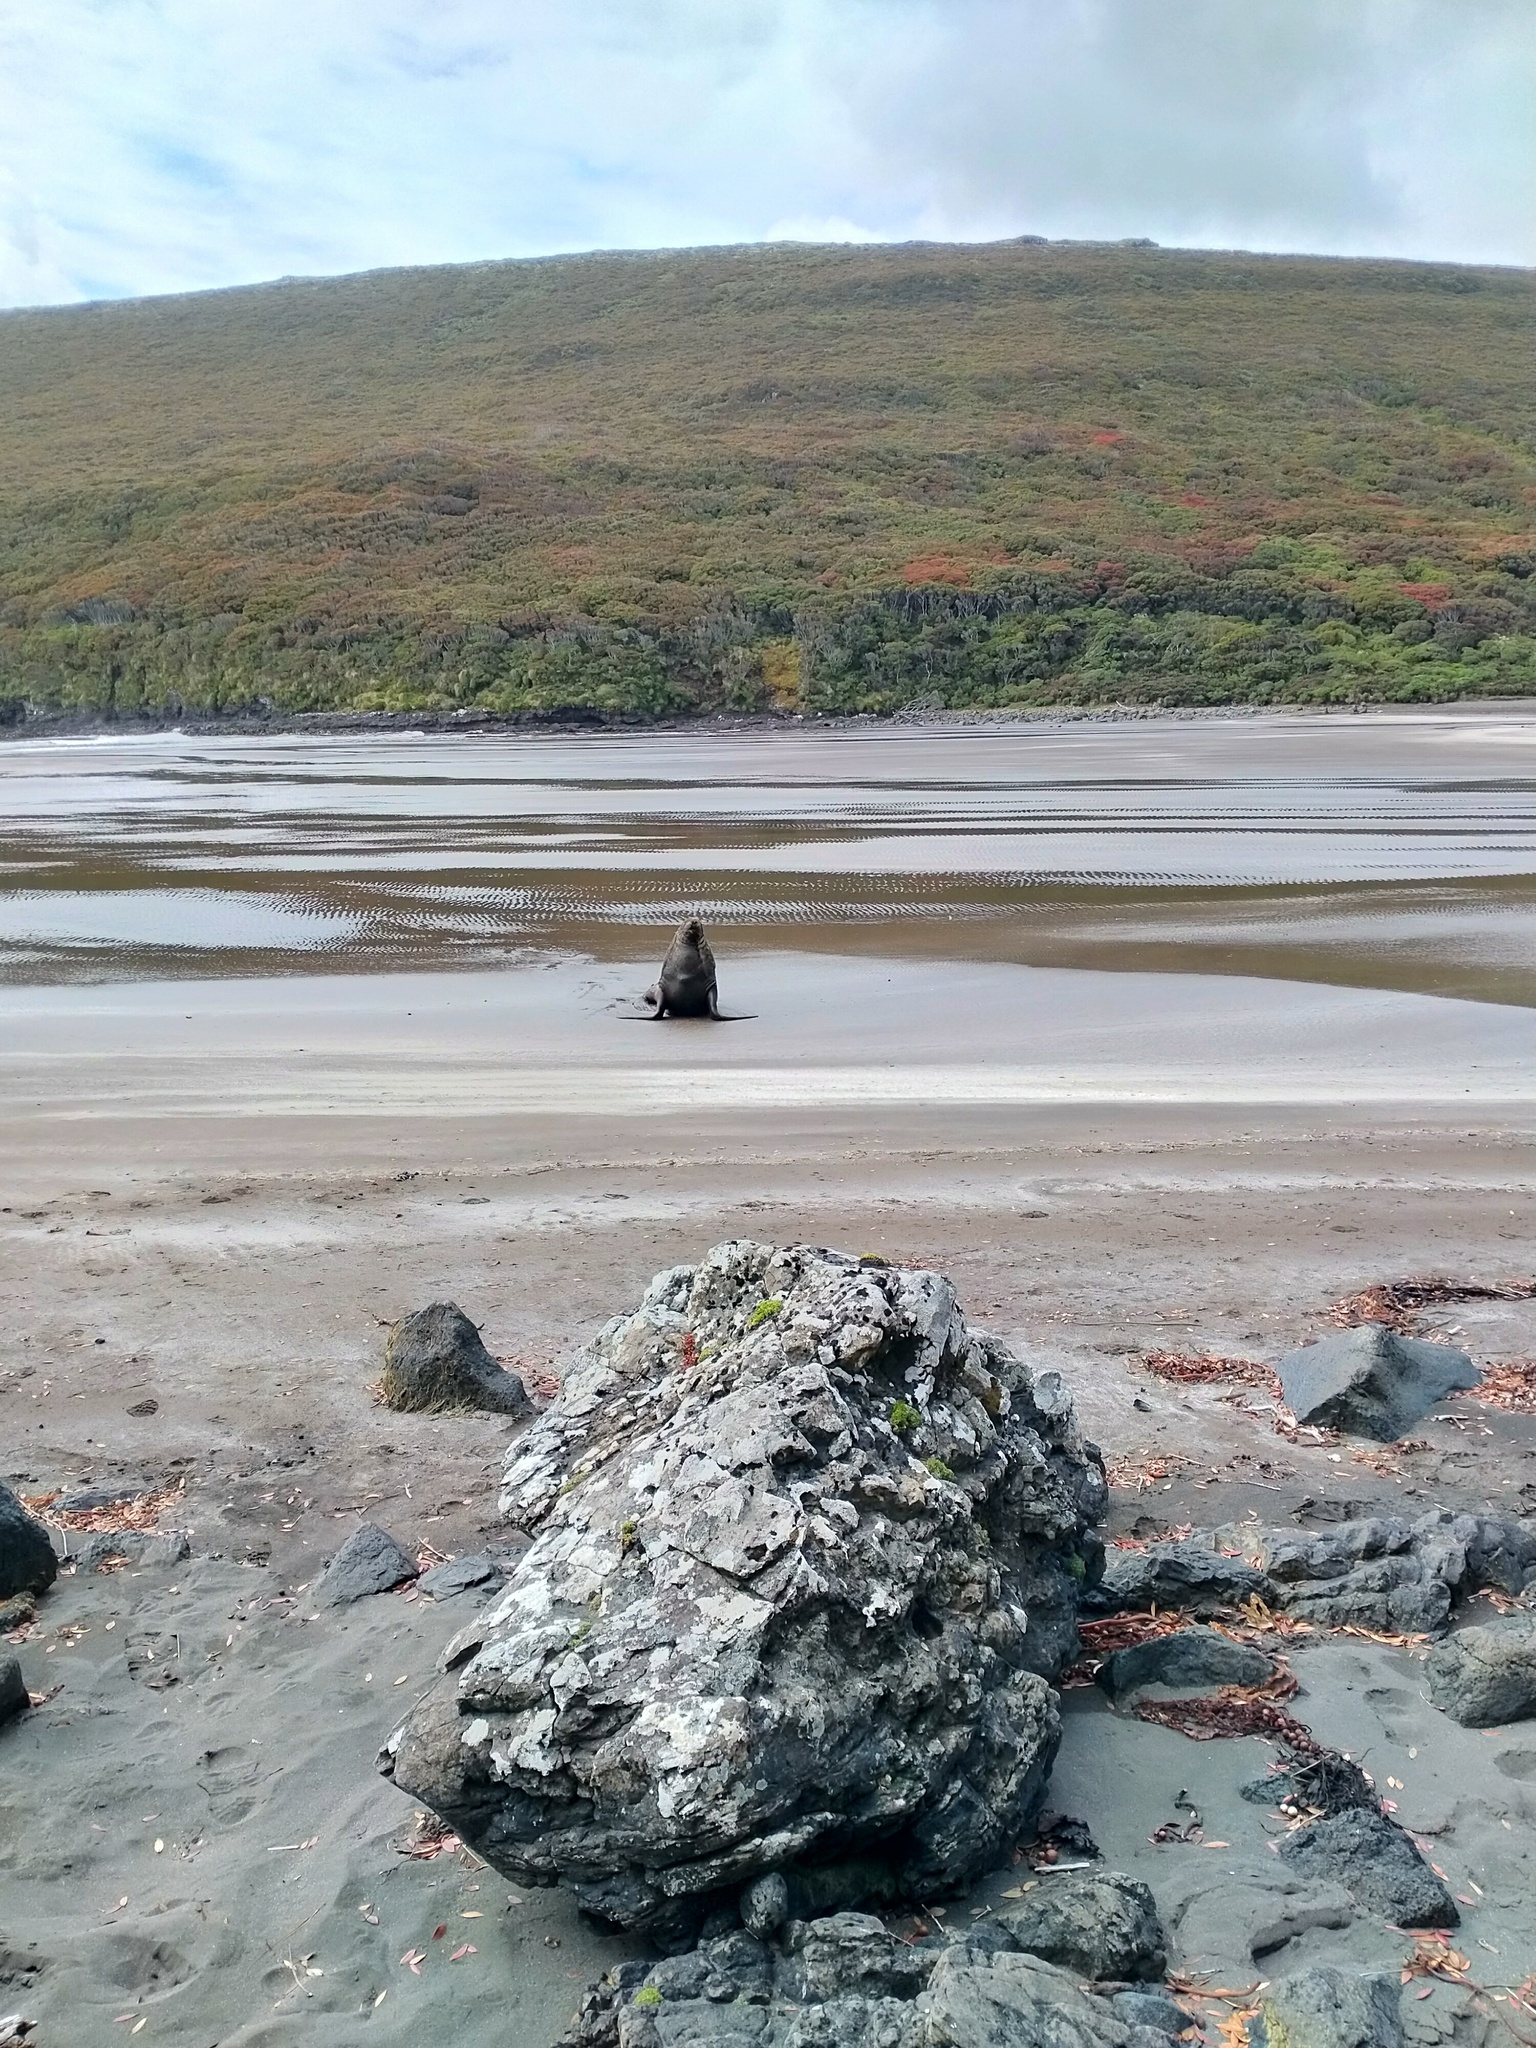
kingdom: Animalia
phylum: Chordata
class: Mammalia
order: Carnivora
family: Otariidae
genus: Phocarctos
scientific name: Phocarctos hookeri
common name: New zealand sea lion
